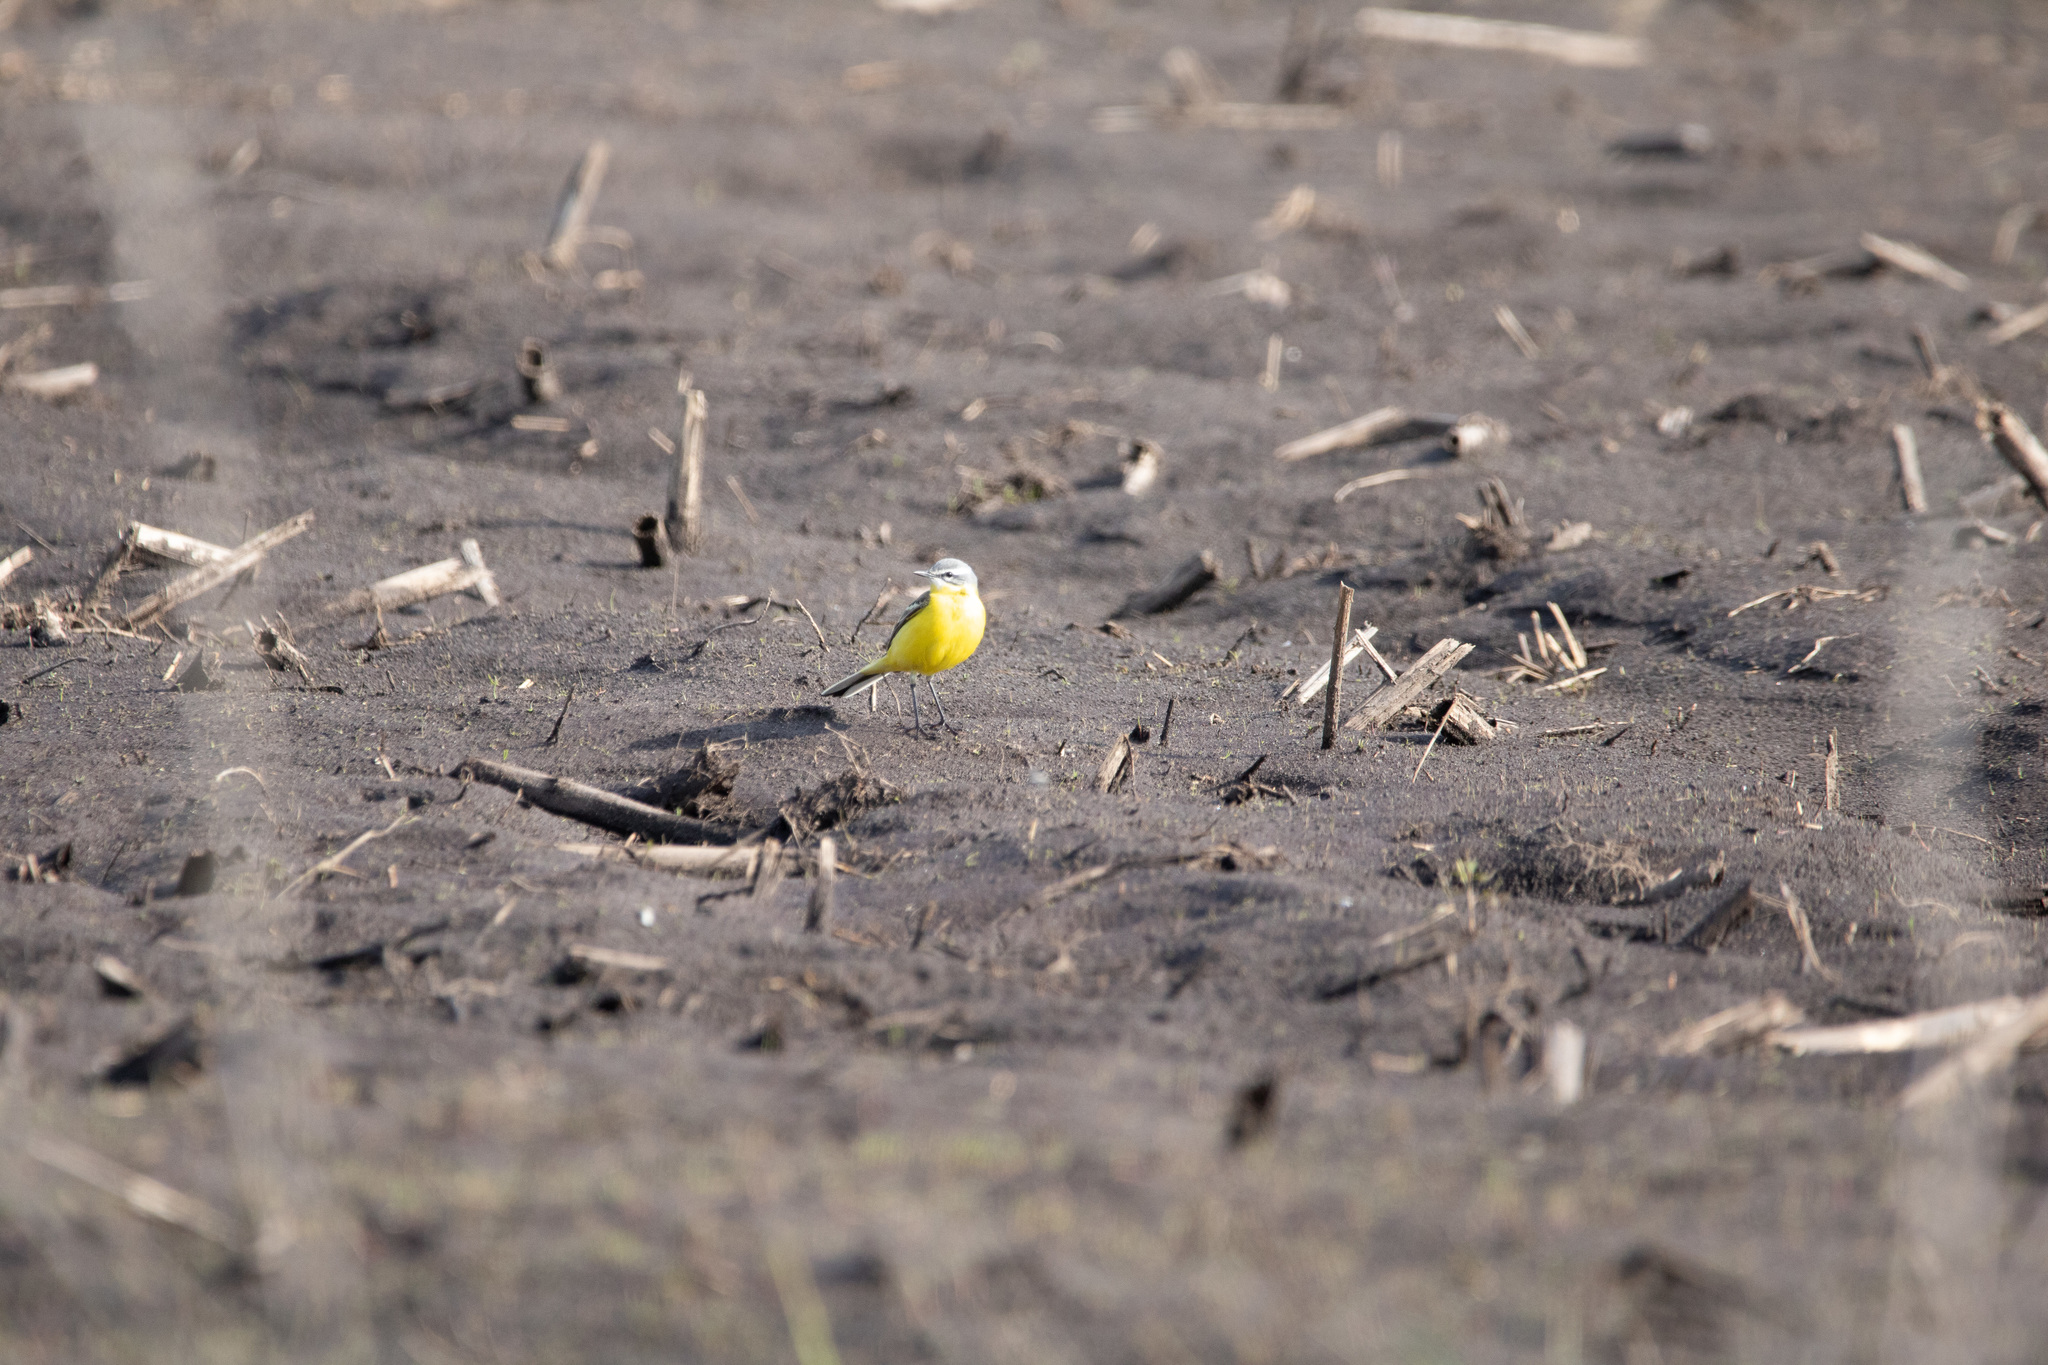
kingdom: Animalia
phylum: Chordata
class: Aves
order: Passeriformes
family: Motacillidae
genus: Motacilla
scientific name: Motacilla flava
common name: Western yellow wagtail
